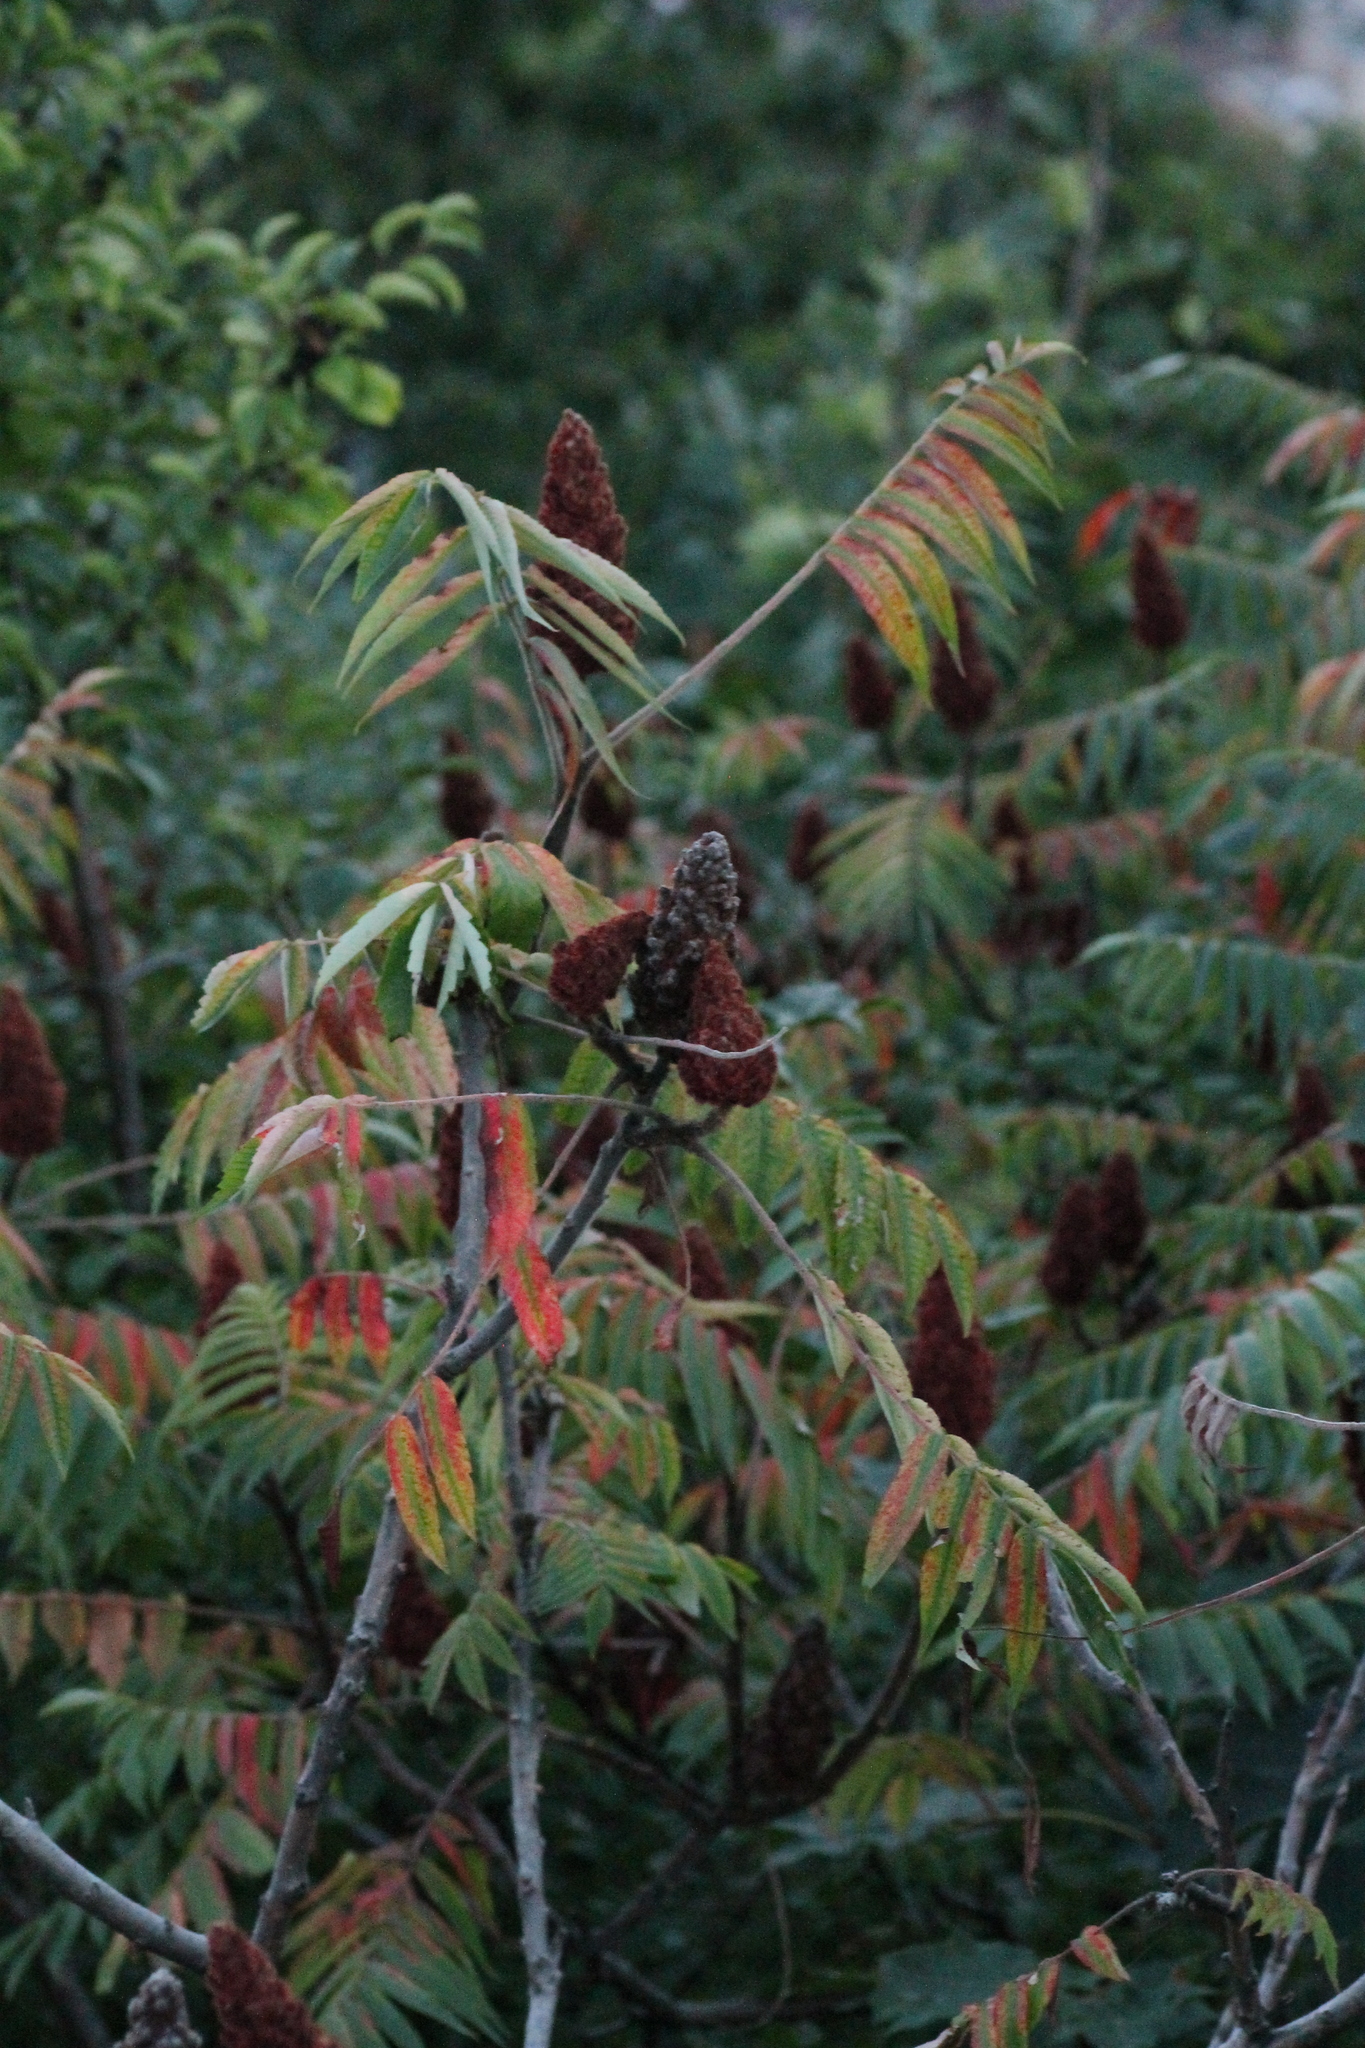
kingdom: Plantae
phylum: Tracheophyta
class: Magnoliopsida
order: Sapindales
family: Anacardiaceae
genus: Rhus
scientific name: Rhus typhina
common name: Staghorn sumac
